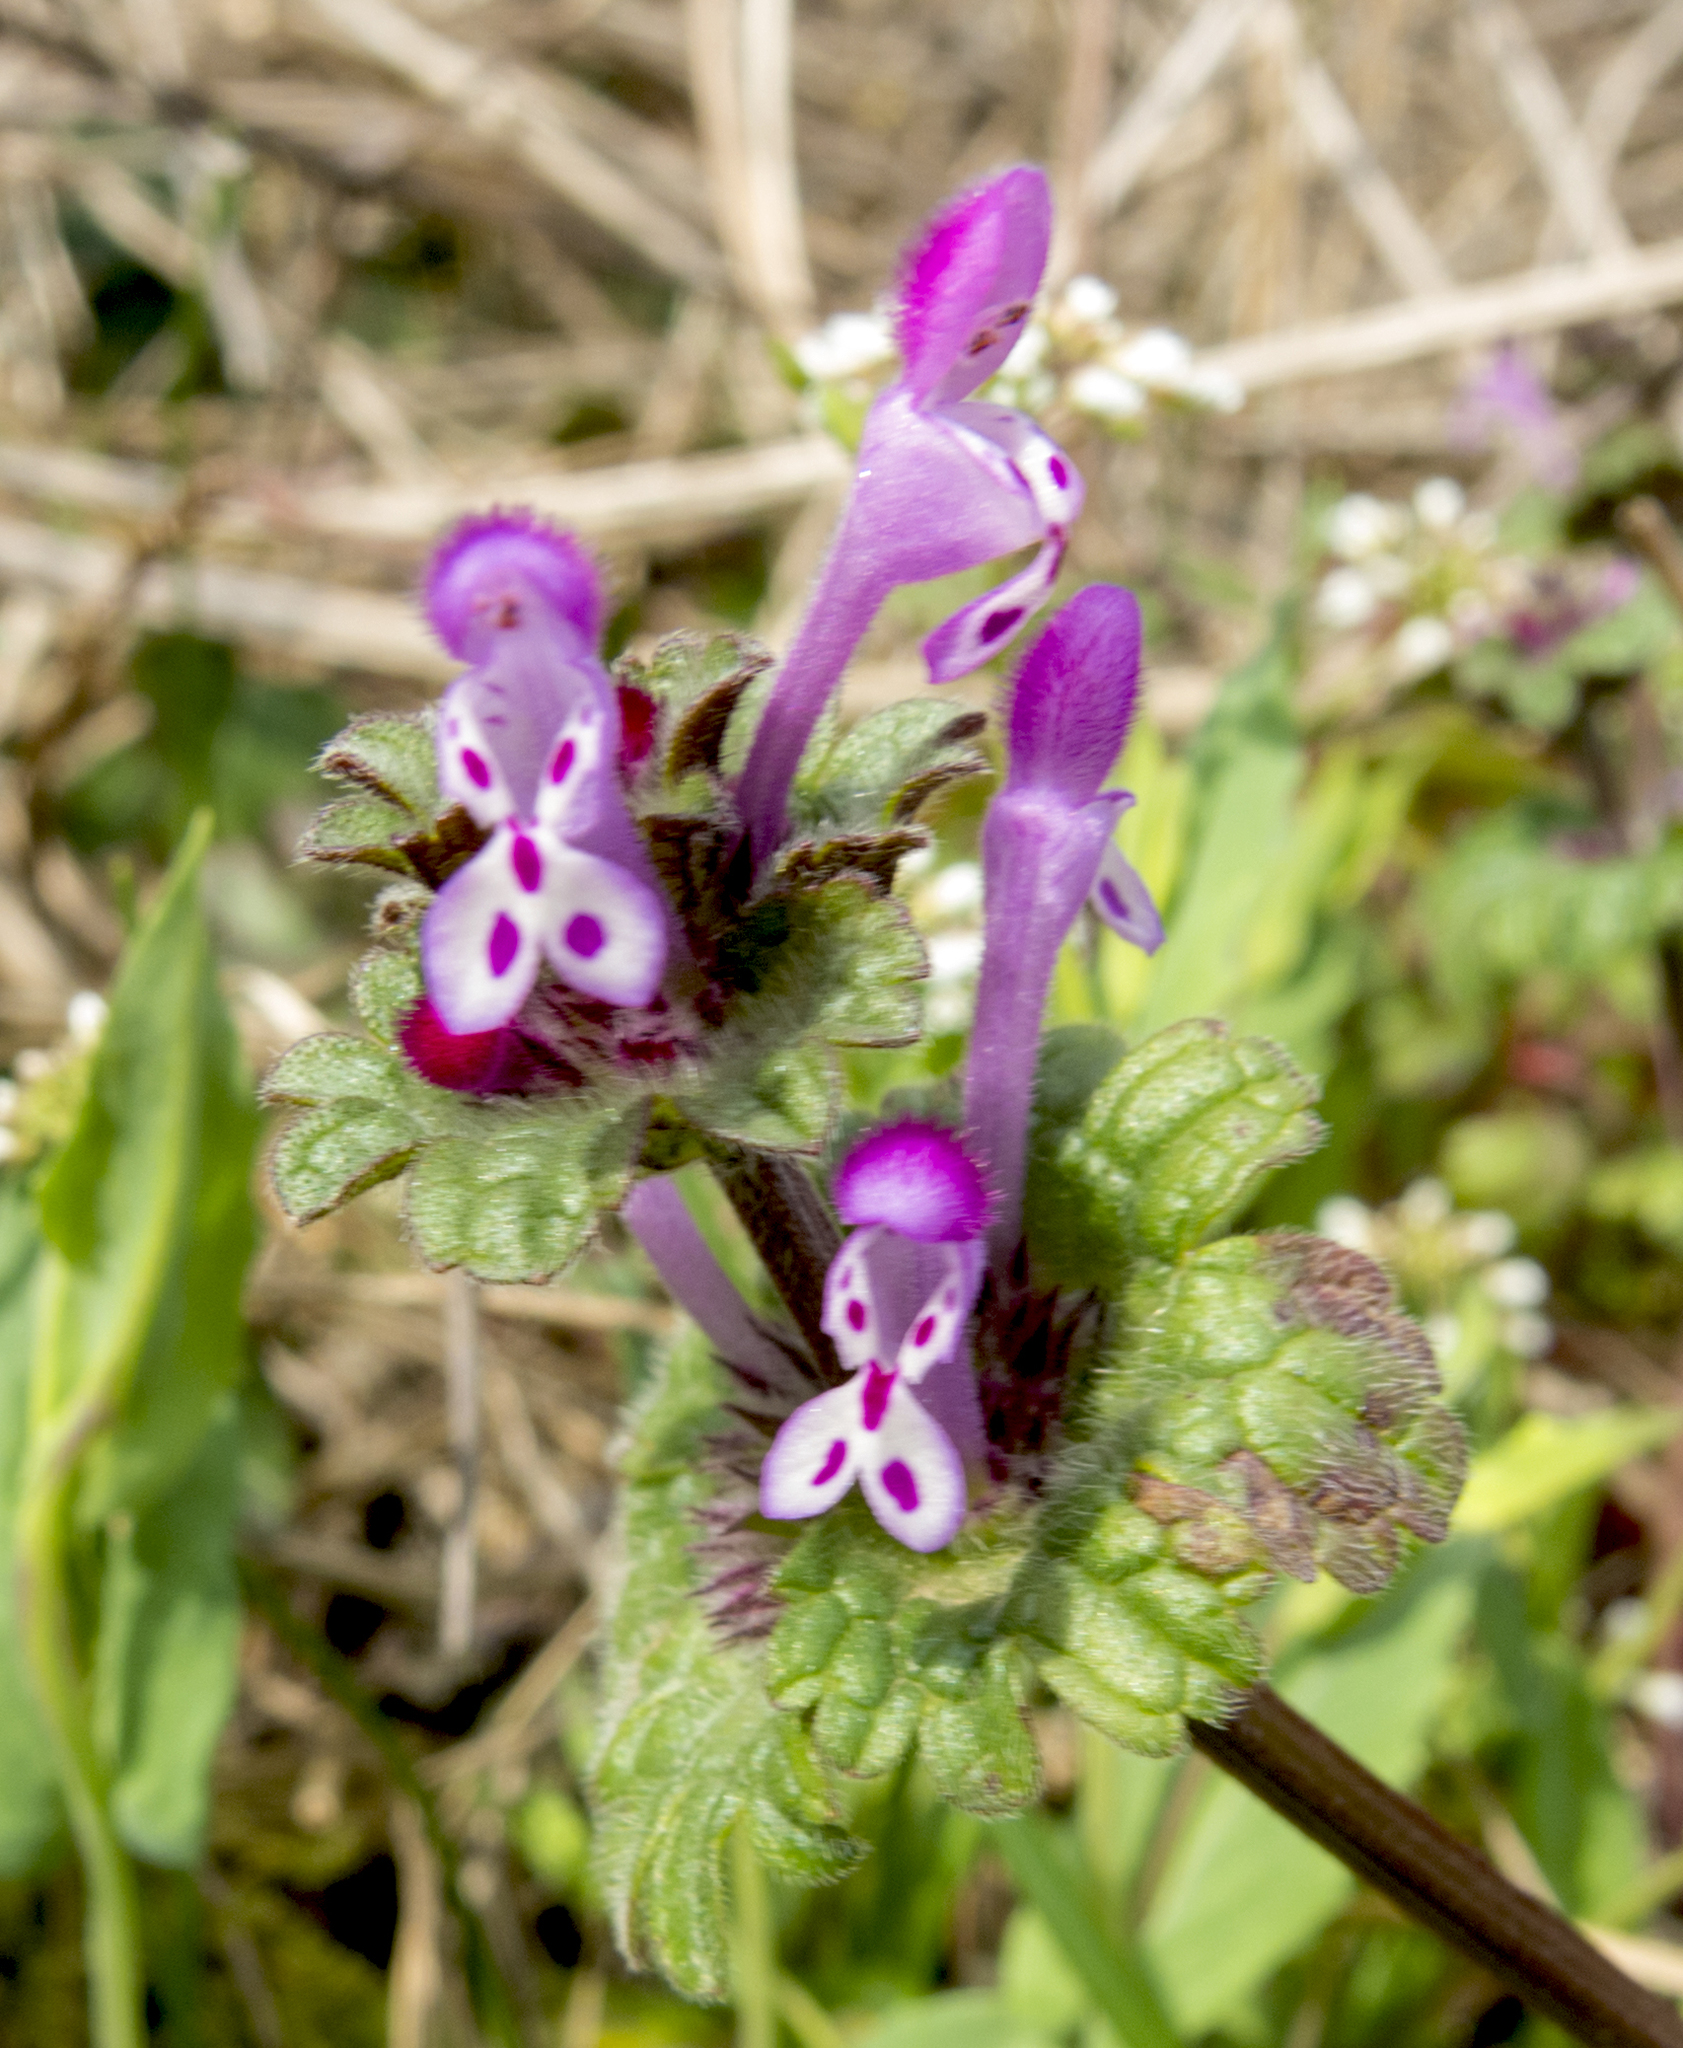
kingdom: Plantae
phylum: Tracheophyta
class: Magnoliopsida
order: Lamiales
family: Lamiaceae
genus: Lamium
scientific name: Lamium amplexicaule
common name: Henbit dead-nettle
